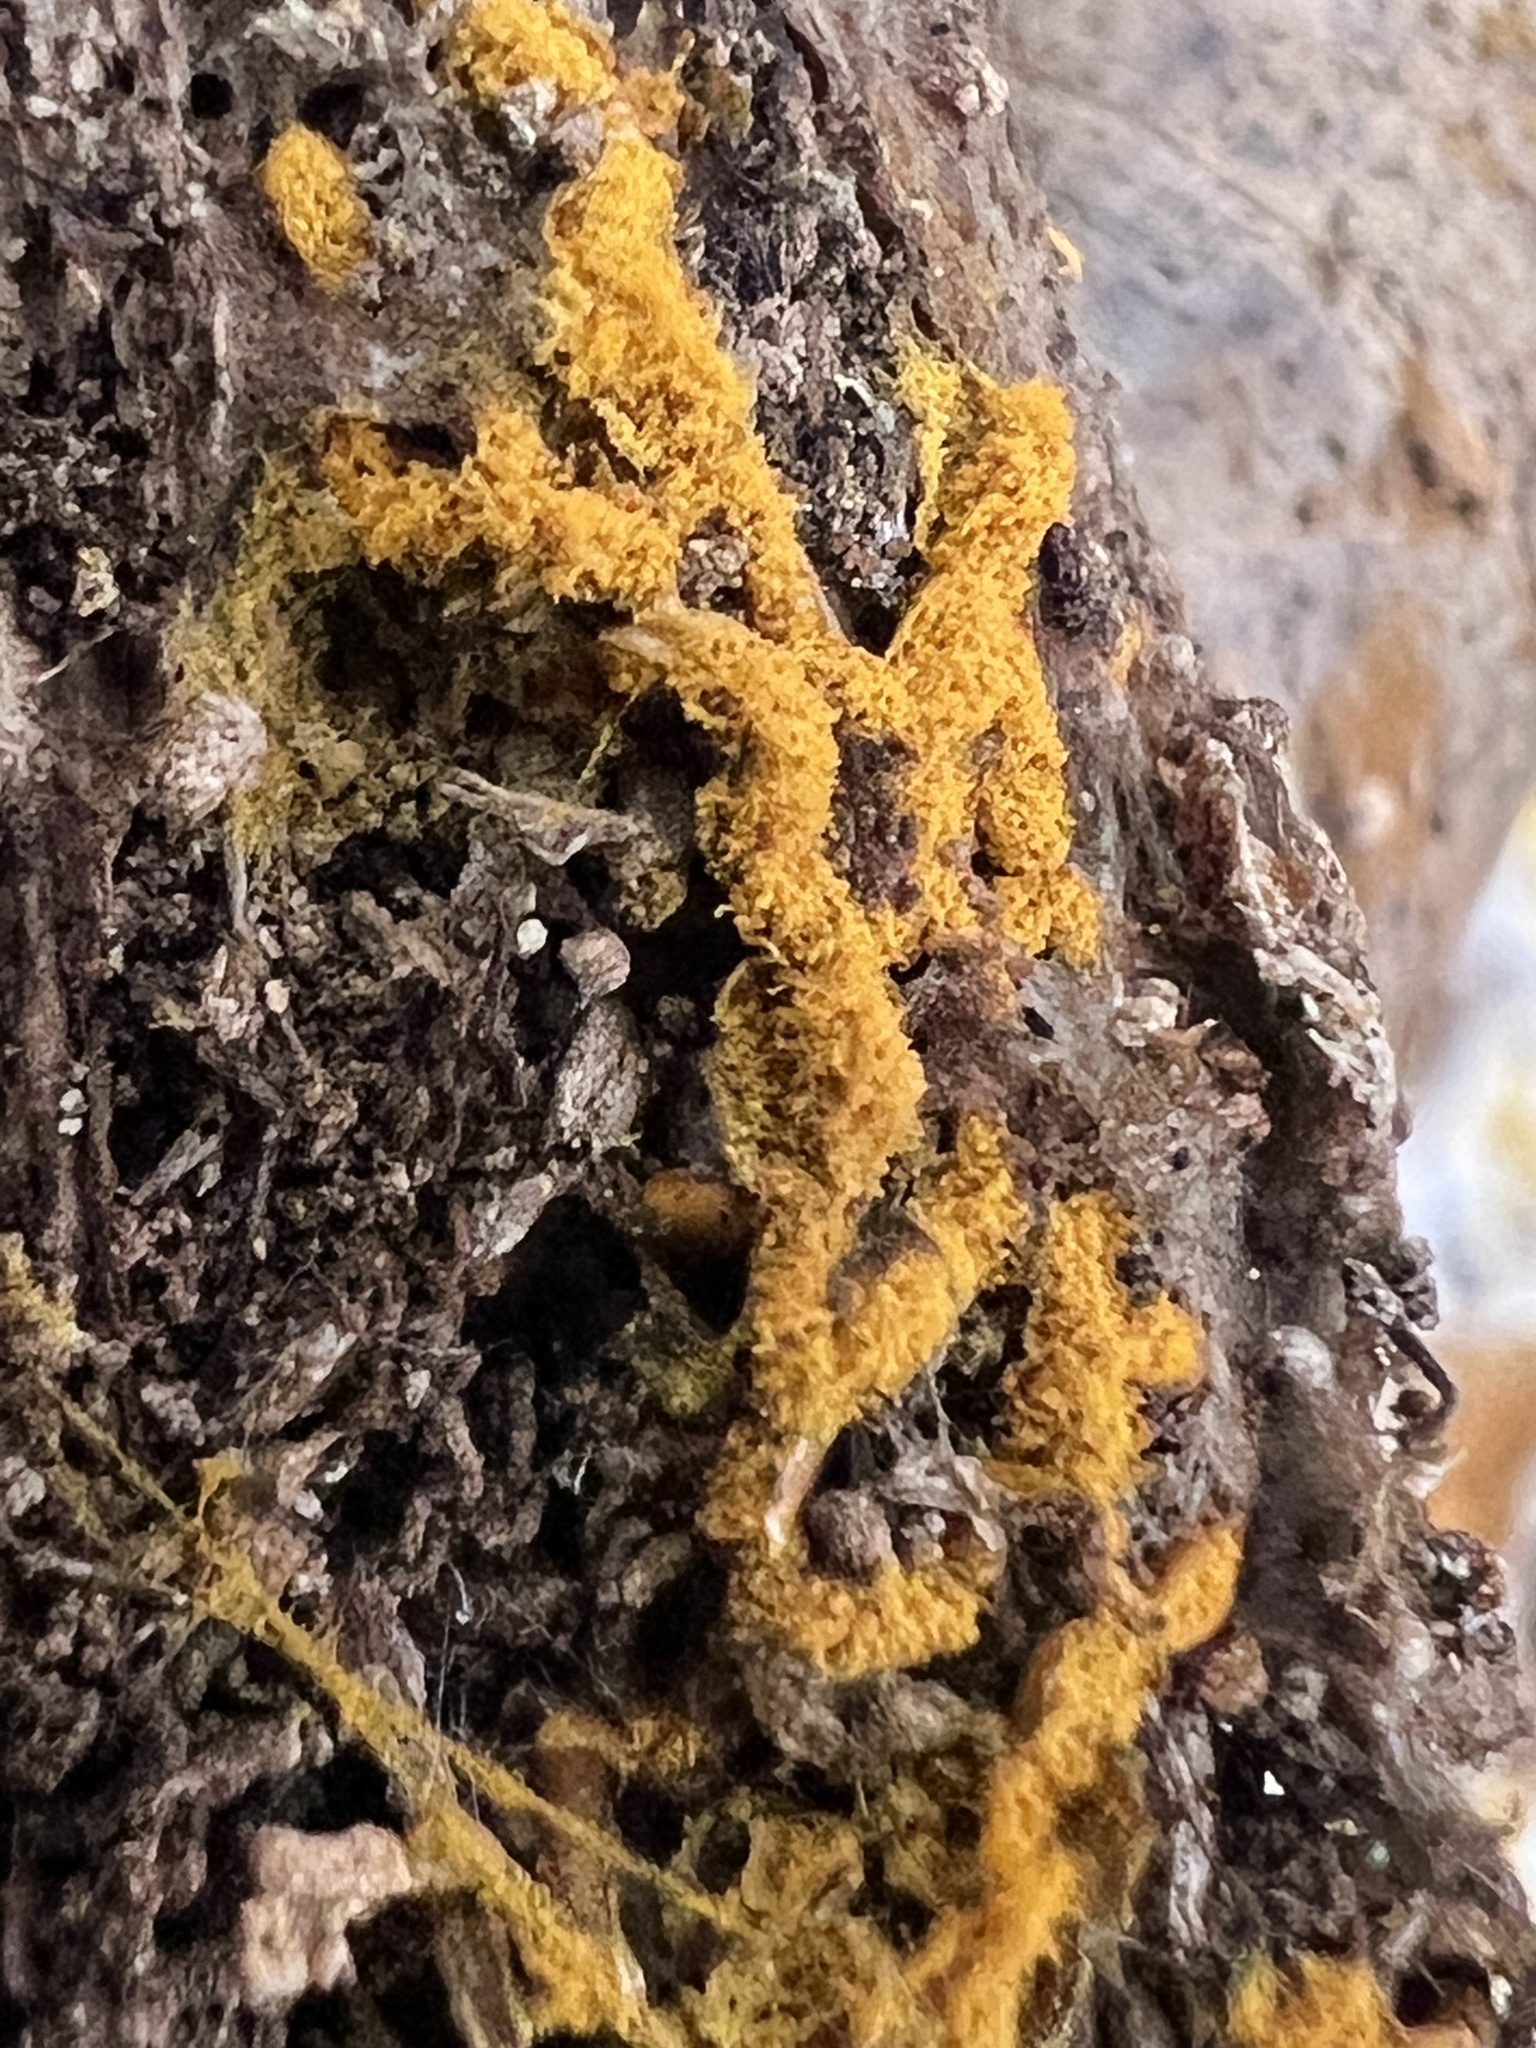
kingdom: Protozoa
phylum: Mycetozoa
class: Myxomycetes
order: Trichiales
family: Arcyriaceae
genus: Hemitrichia
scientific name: Hemitrichia serpula
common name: Pretzel slime mold
